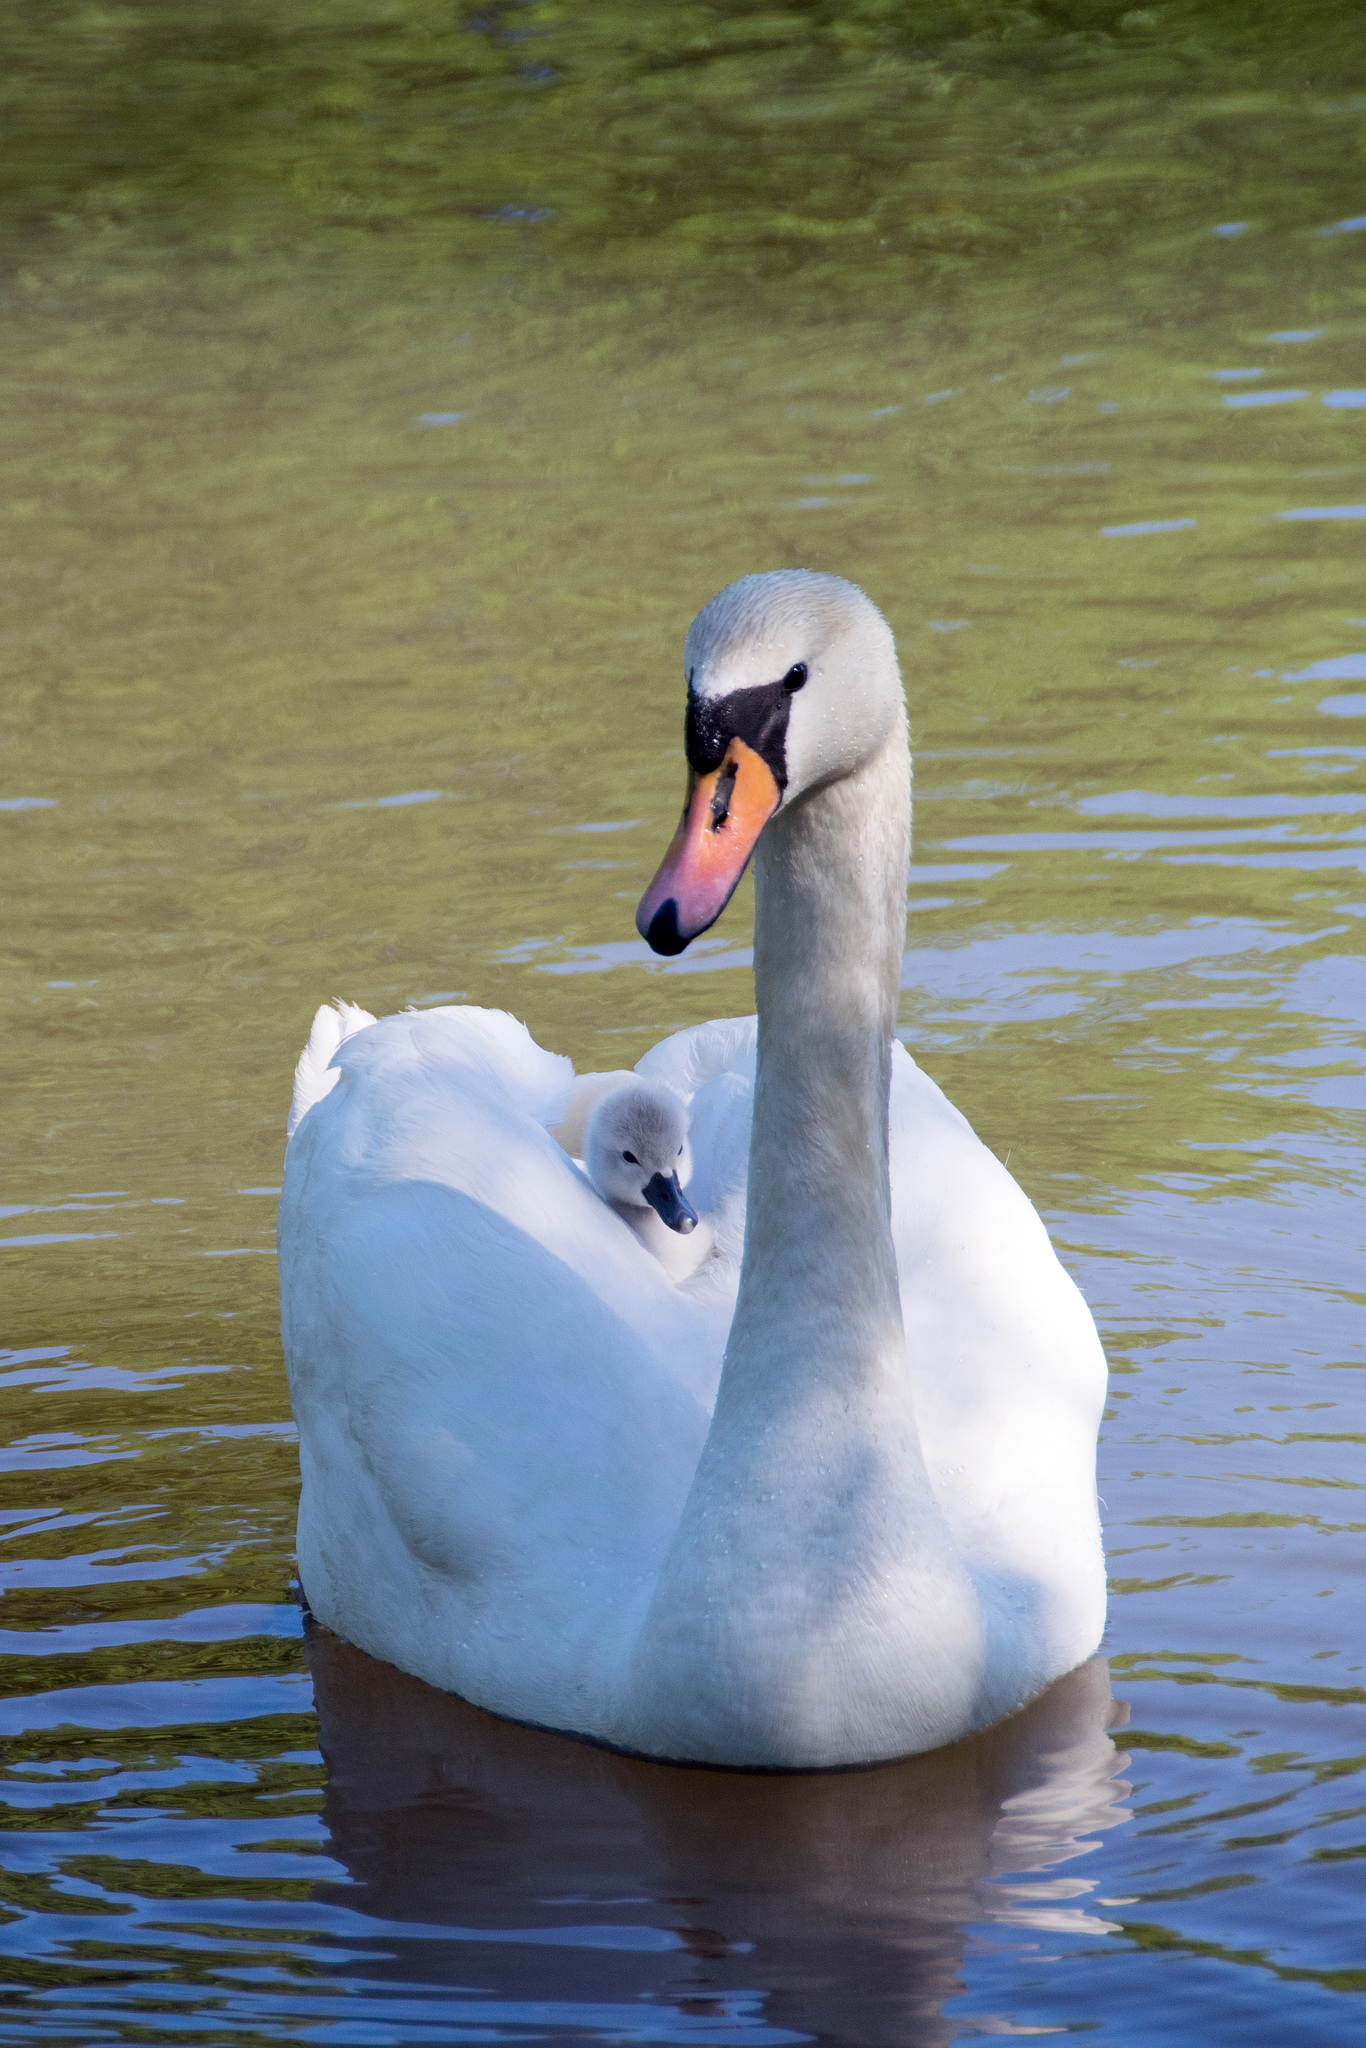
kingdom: Animalia
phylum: Chordata
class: Aves
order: Anseriformes
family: Anatidae
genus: Cygnus
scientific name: Cygnus olor
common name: Mute swan
